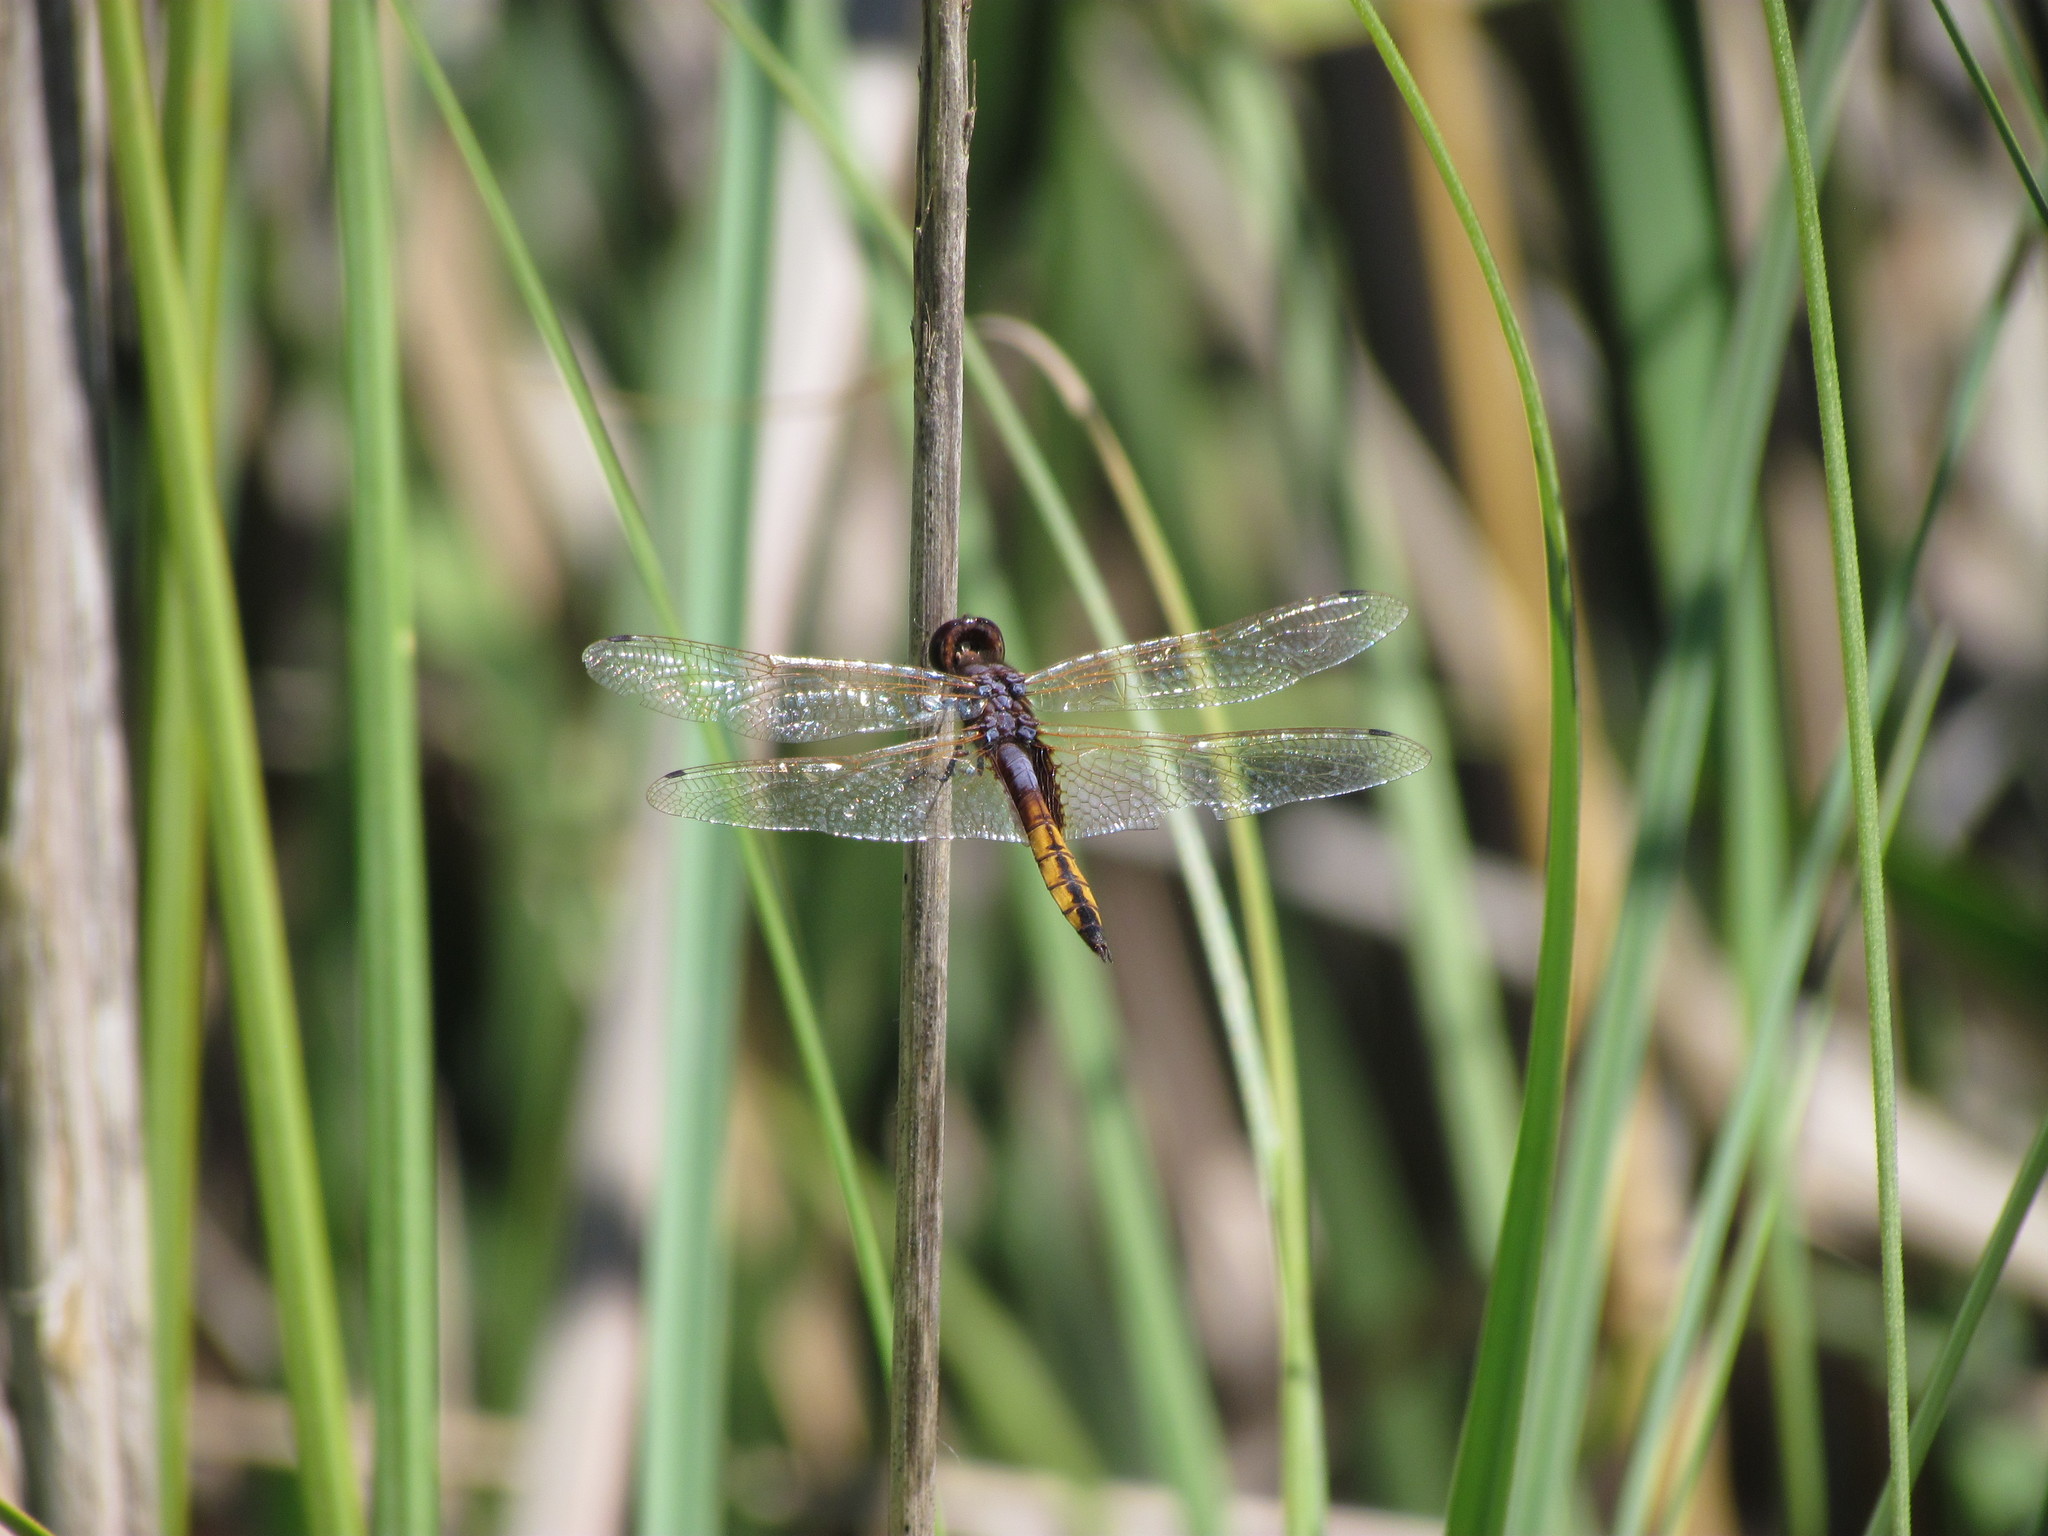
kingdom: Animalia
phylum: Arthropoda
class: Insecta
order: Odonata
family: Libellulidae
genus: Miathyria
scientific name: Miathyria marcella
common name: Hyacinth glider
